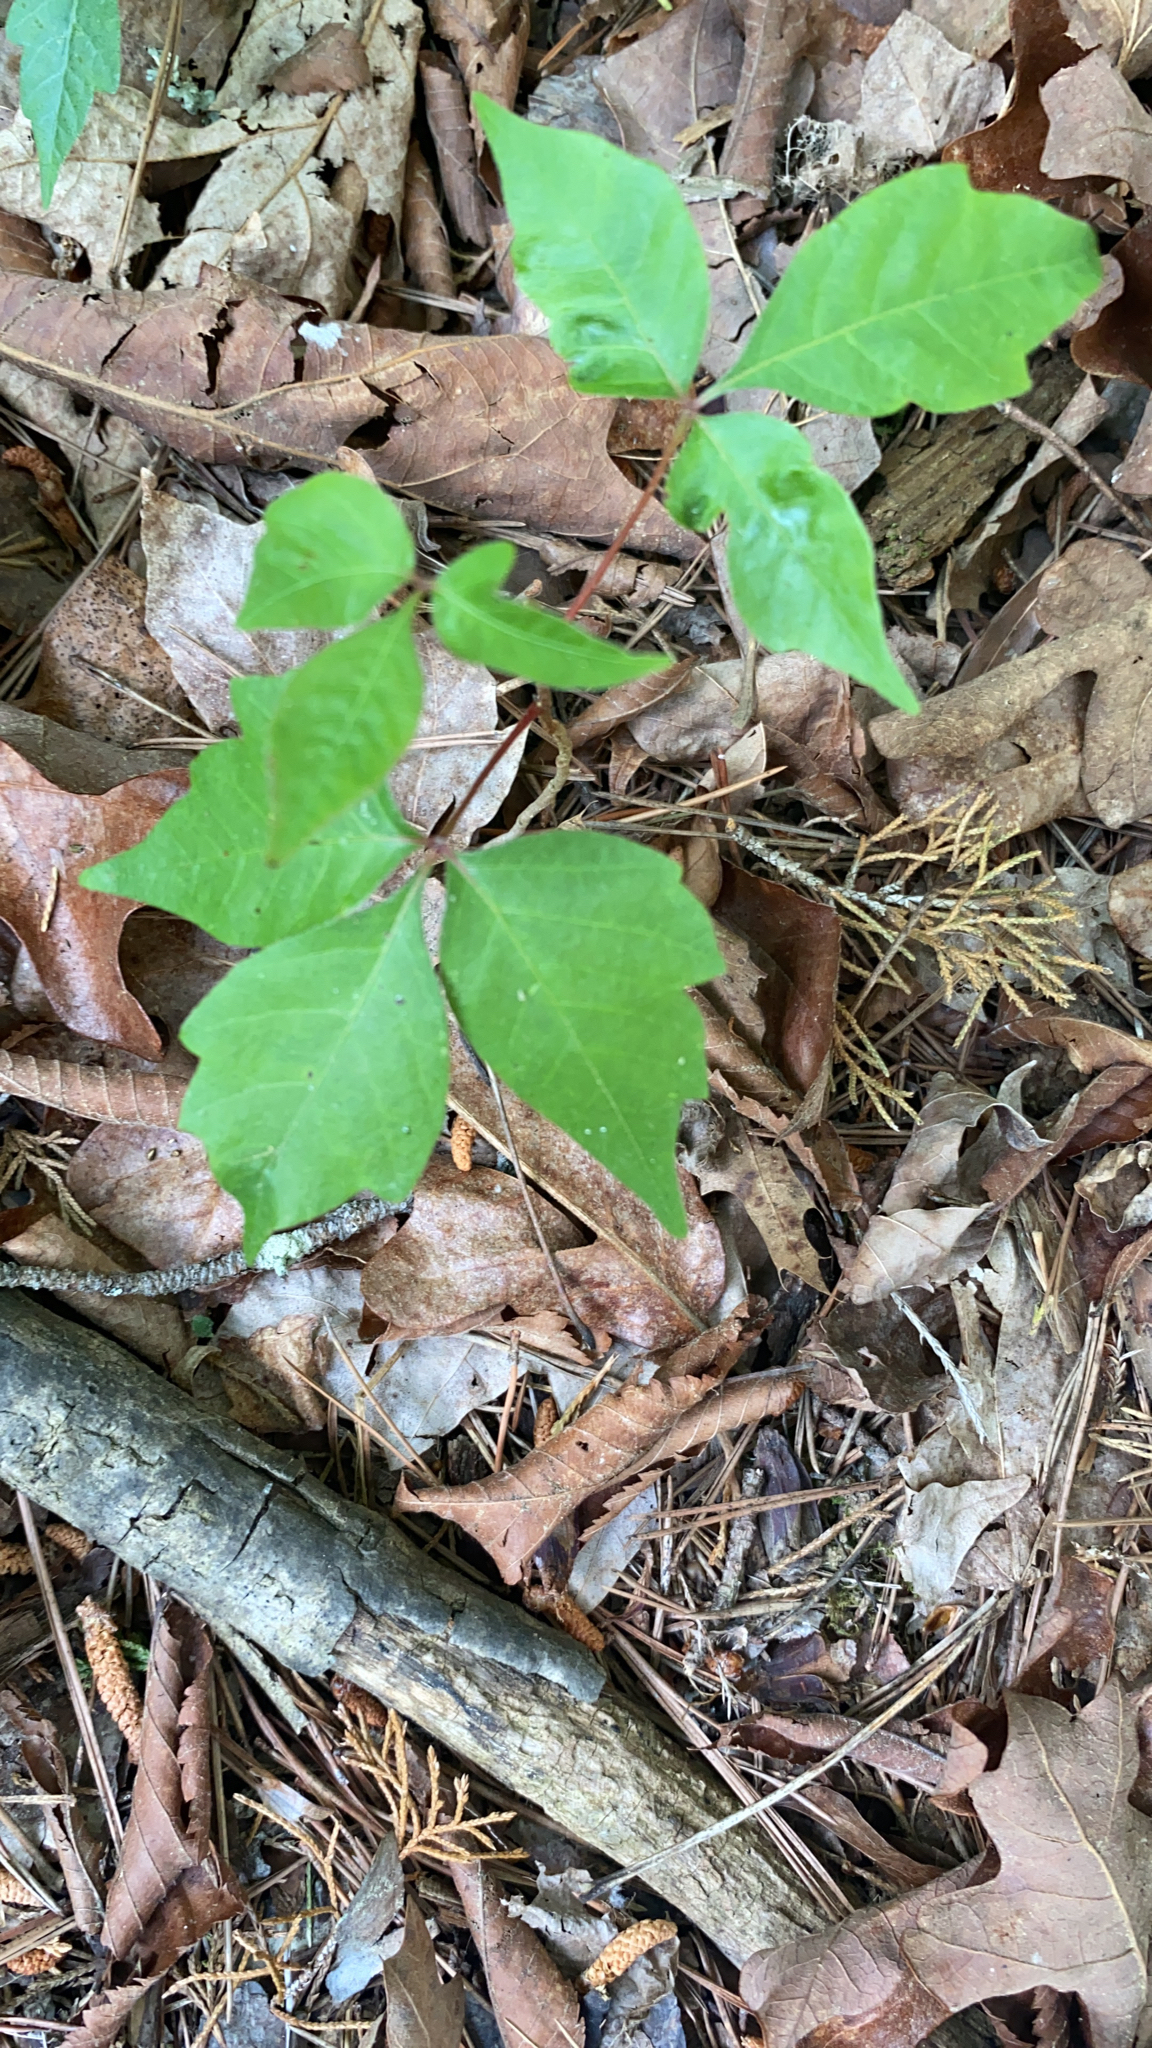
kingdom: Plantae
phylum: Tracheophyta
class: Magnoliopsida
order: Sapindales
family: Anacardiaceae
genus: Toxicodendron
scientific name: Toxicodendron radicans
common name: Poison ivy
